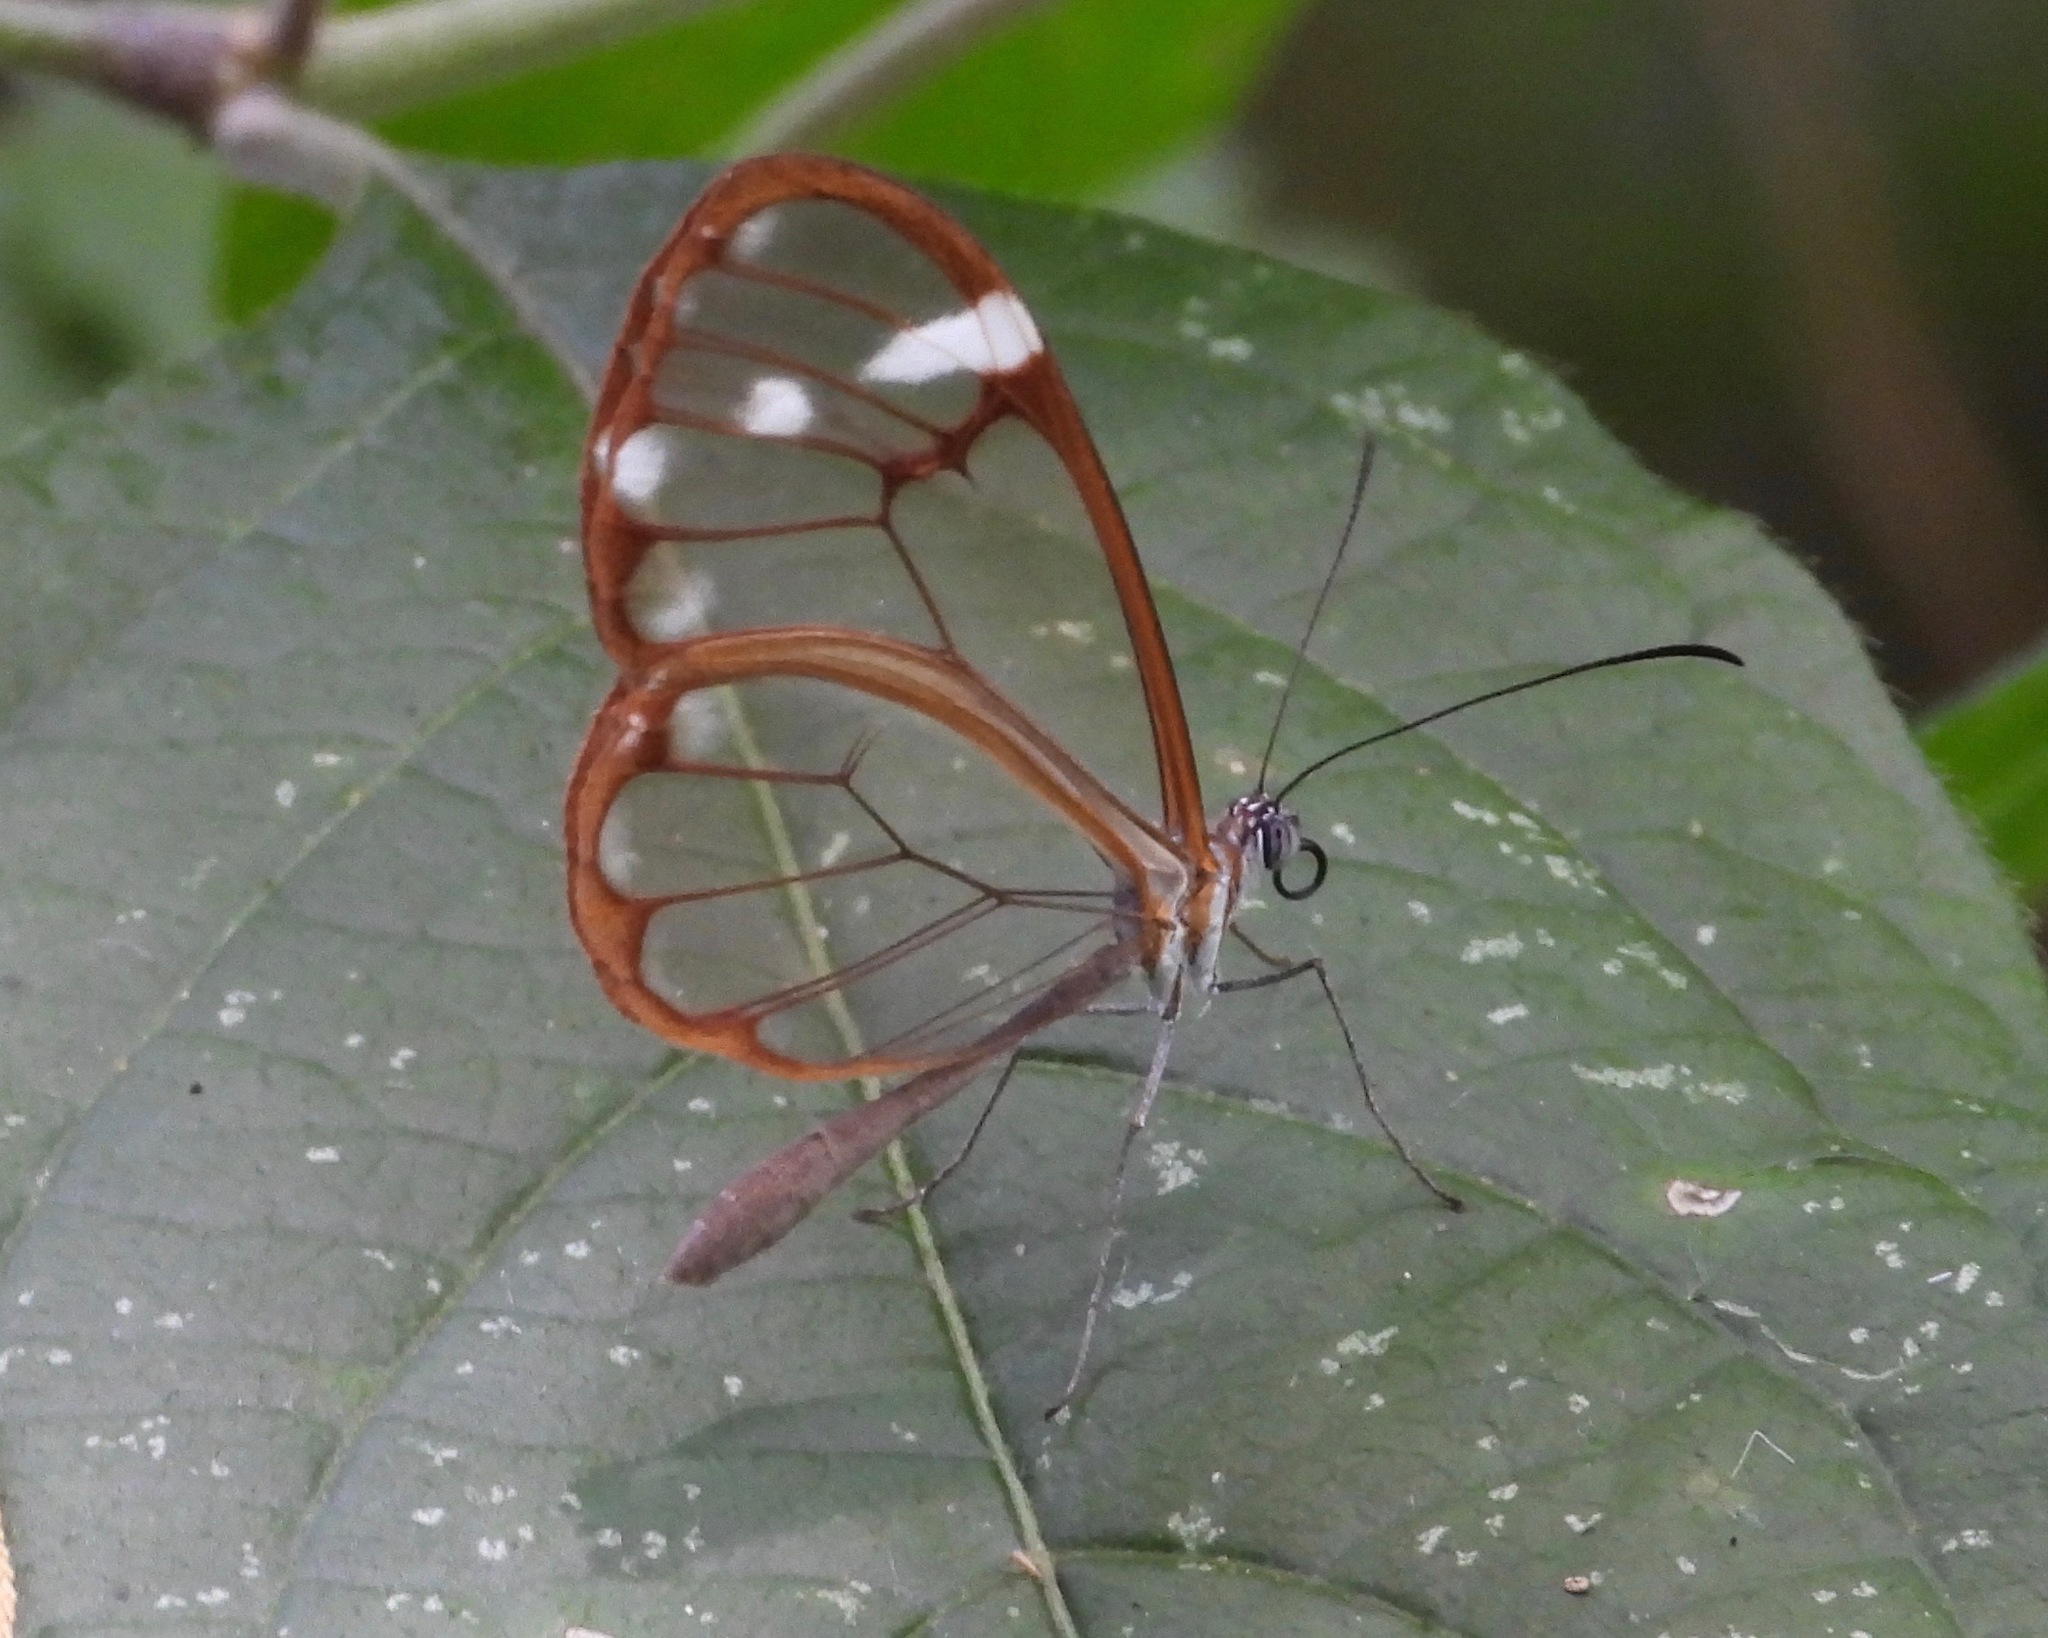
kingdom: Animalia
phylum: Arthropoda
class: Insecta
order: Lepidoptera
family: Nymphalidae
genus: Greta
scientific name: Greta annette
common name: White-spotted clearwing
